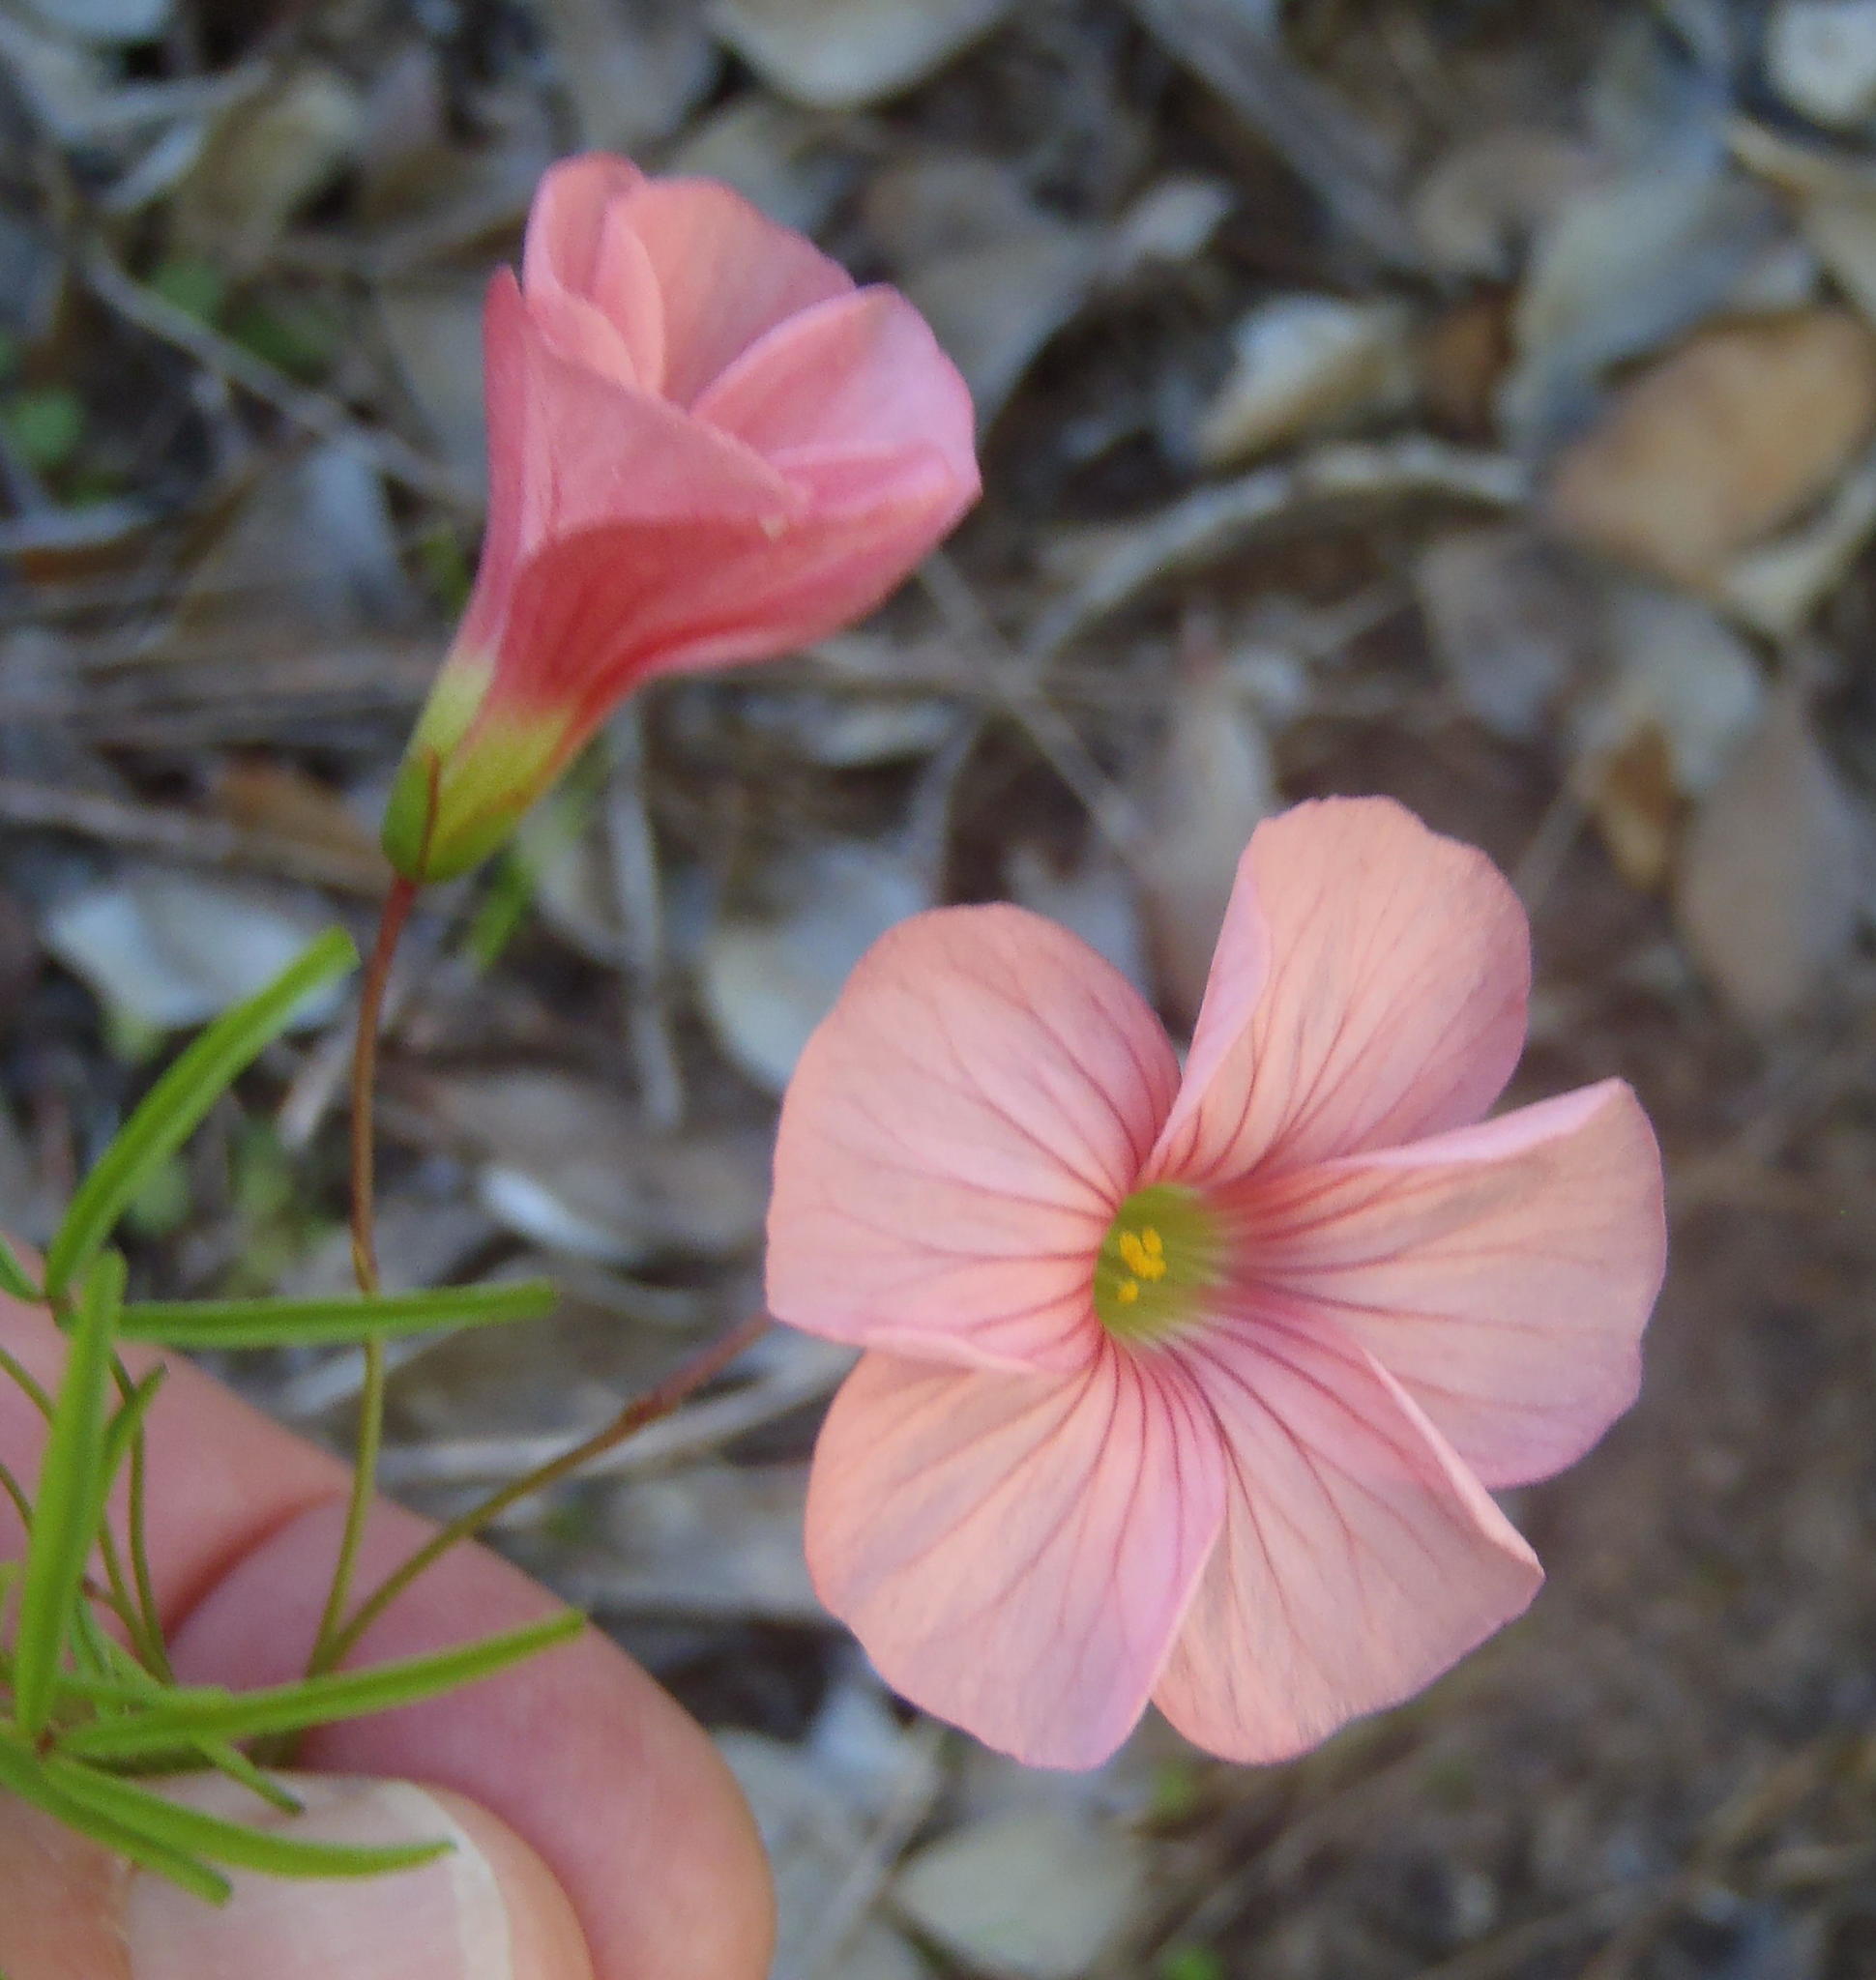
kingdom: Plantae
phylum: Tracheophyta
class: Magnoliopsida
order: Oxalidales
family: Oxalidaceae
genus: Oxalis
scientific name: Oxalis pendulifolia
